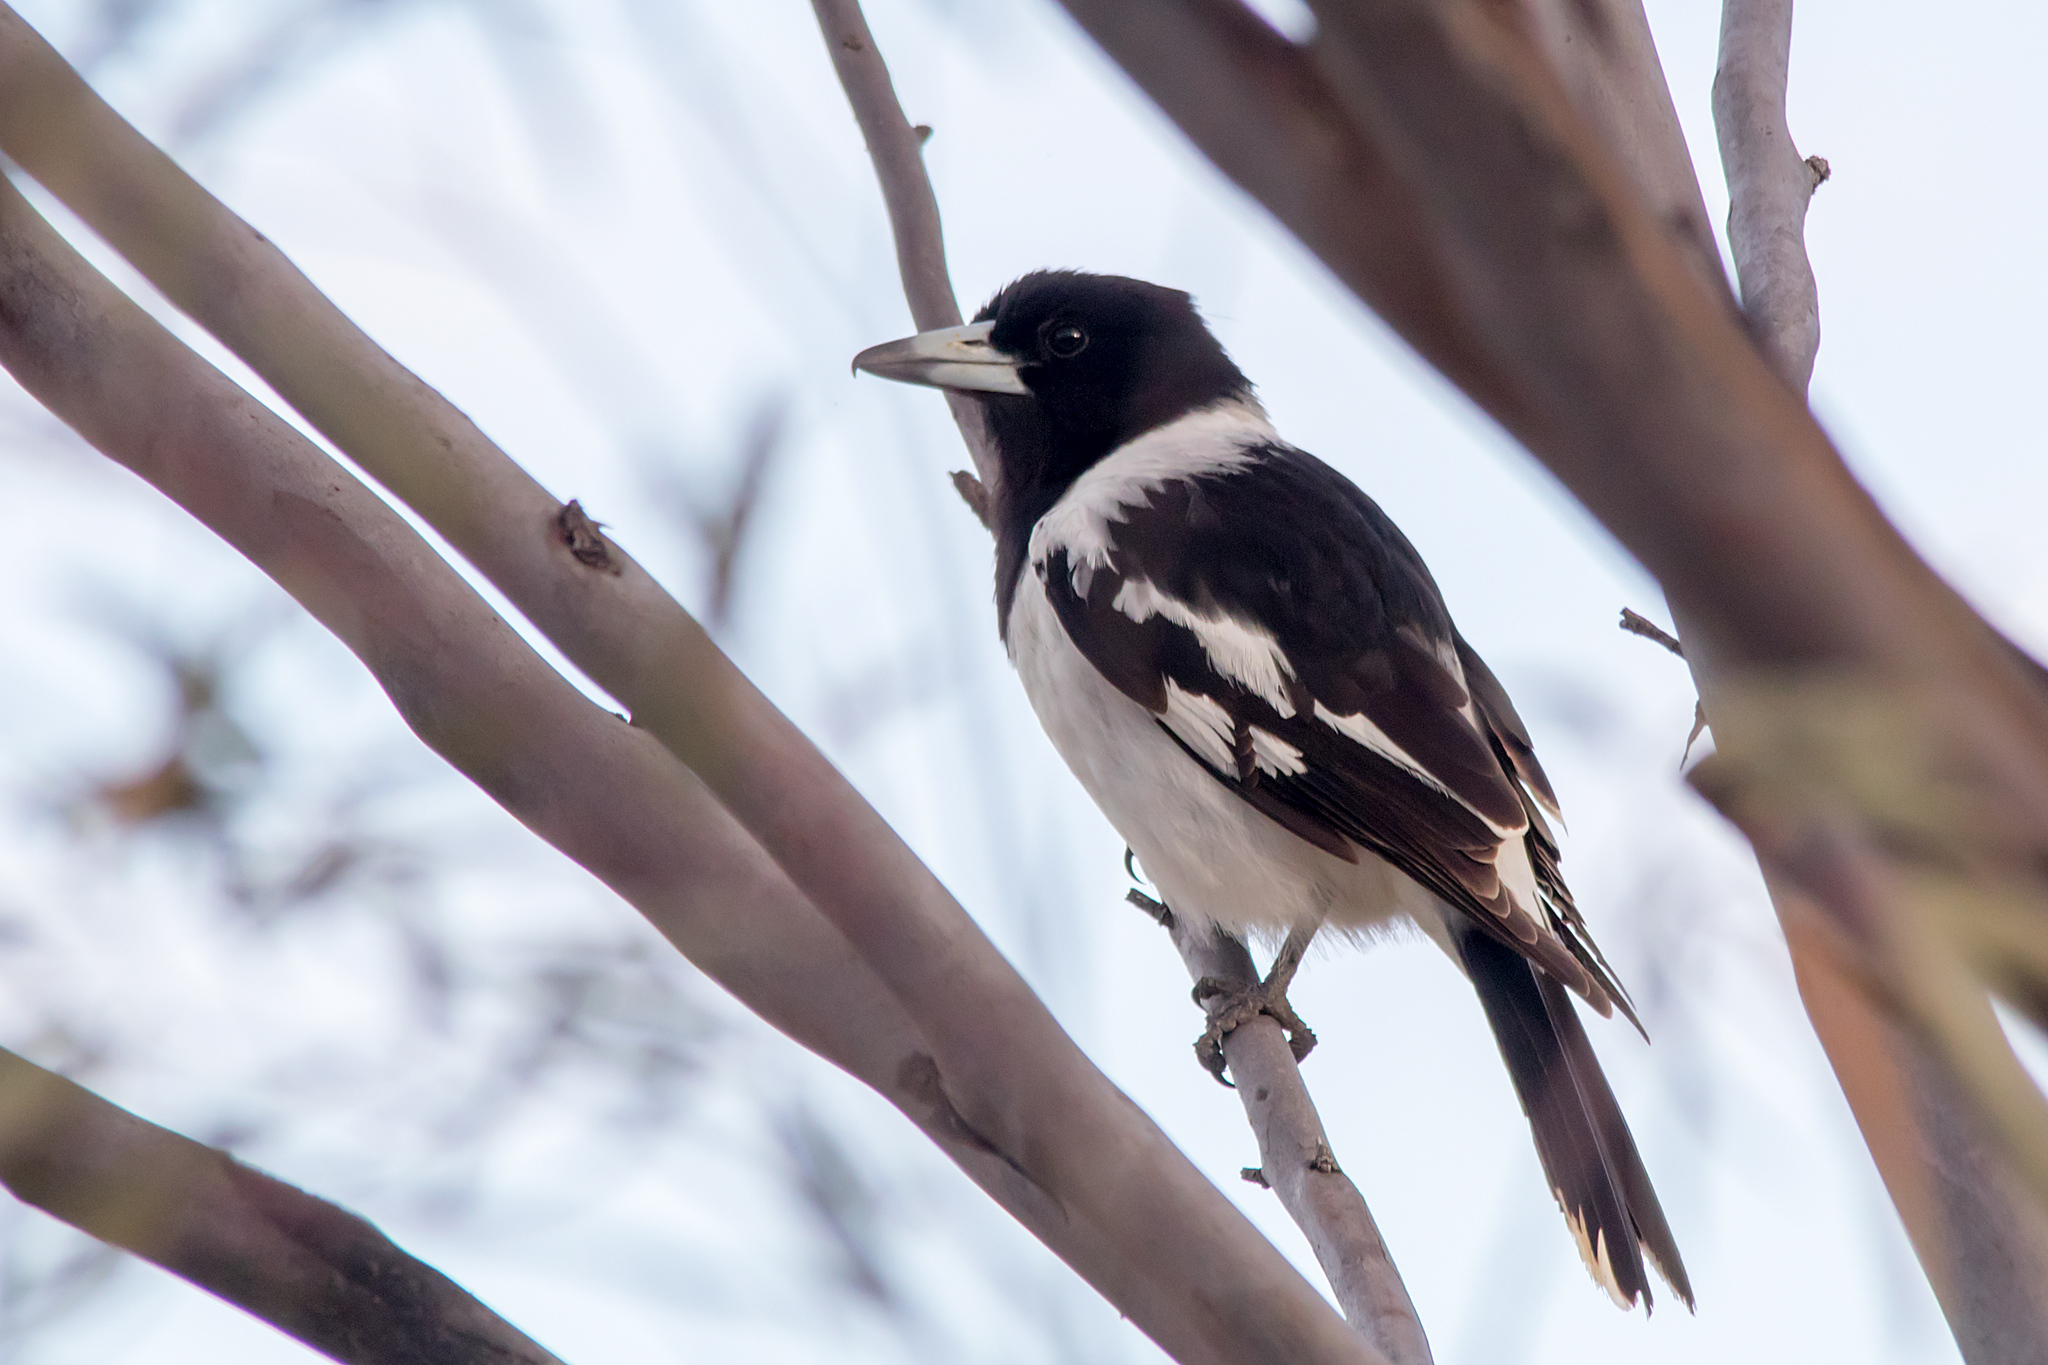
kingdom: Animalia
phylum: Chordata
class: Aves
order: Passeriformes
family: Cracticidae
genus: Cracticus
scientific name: Cracticus nigrogularis
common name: Pied butcherbird
